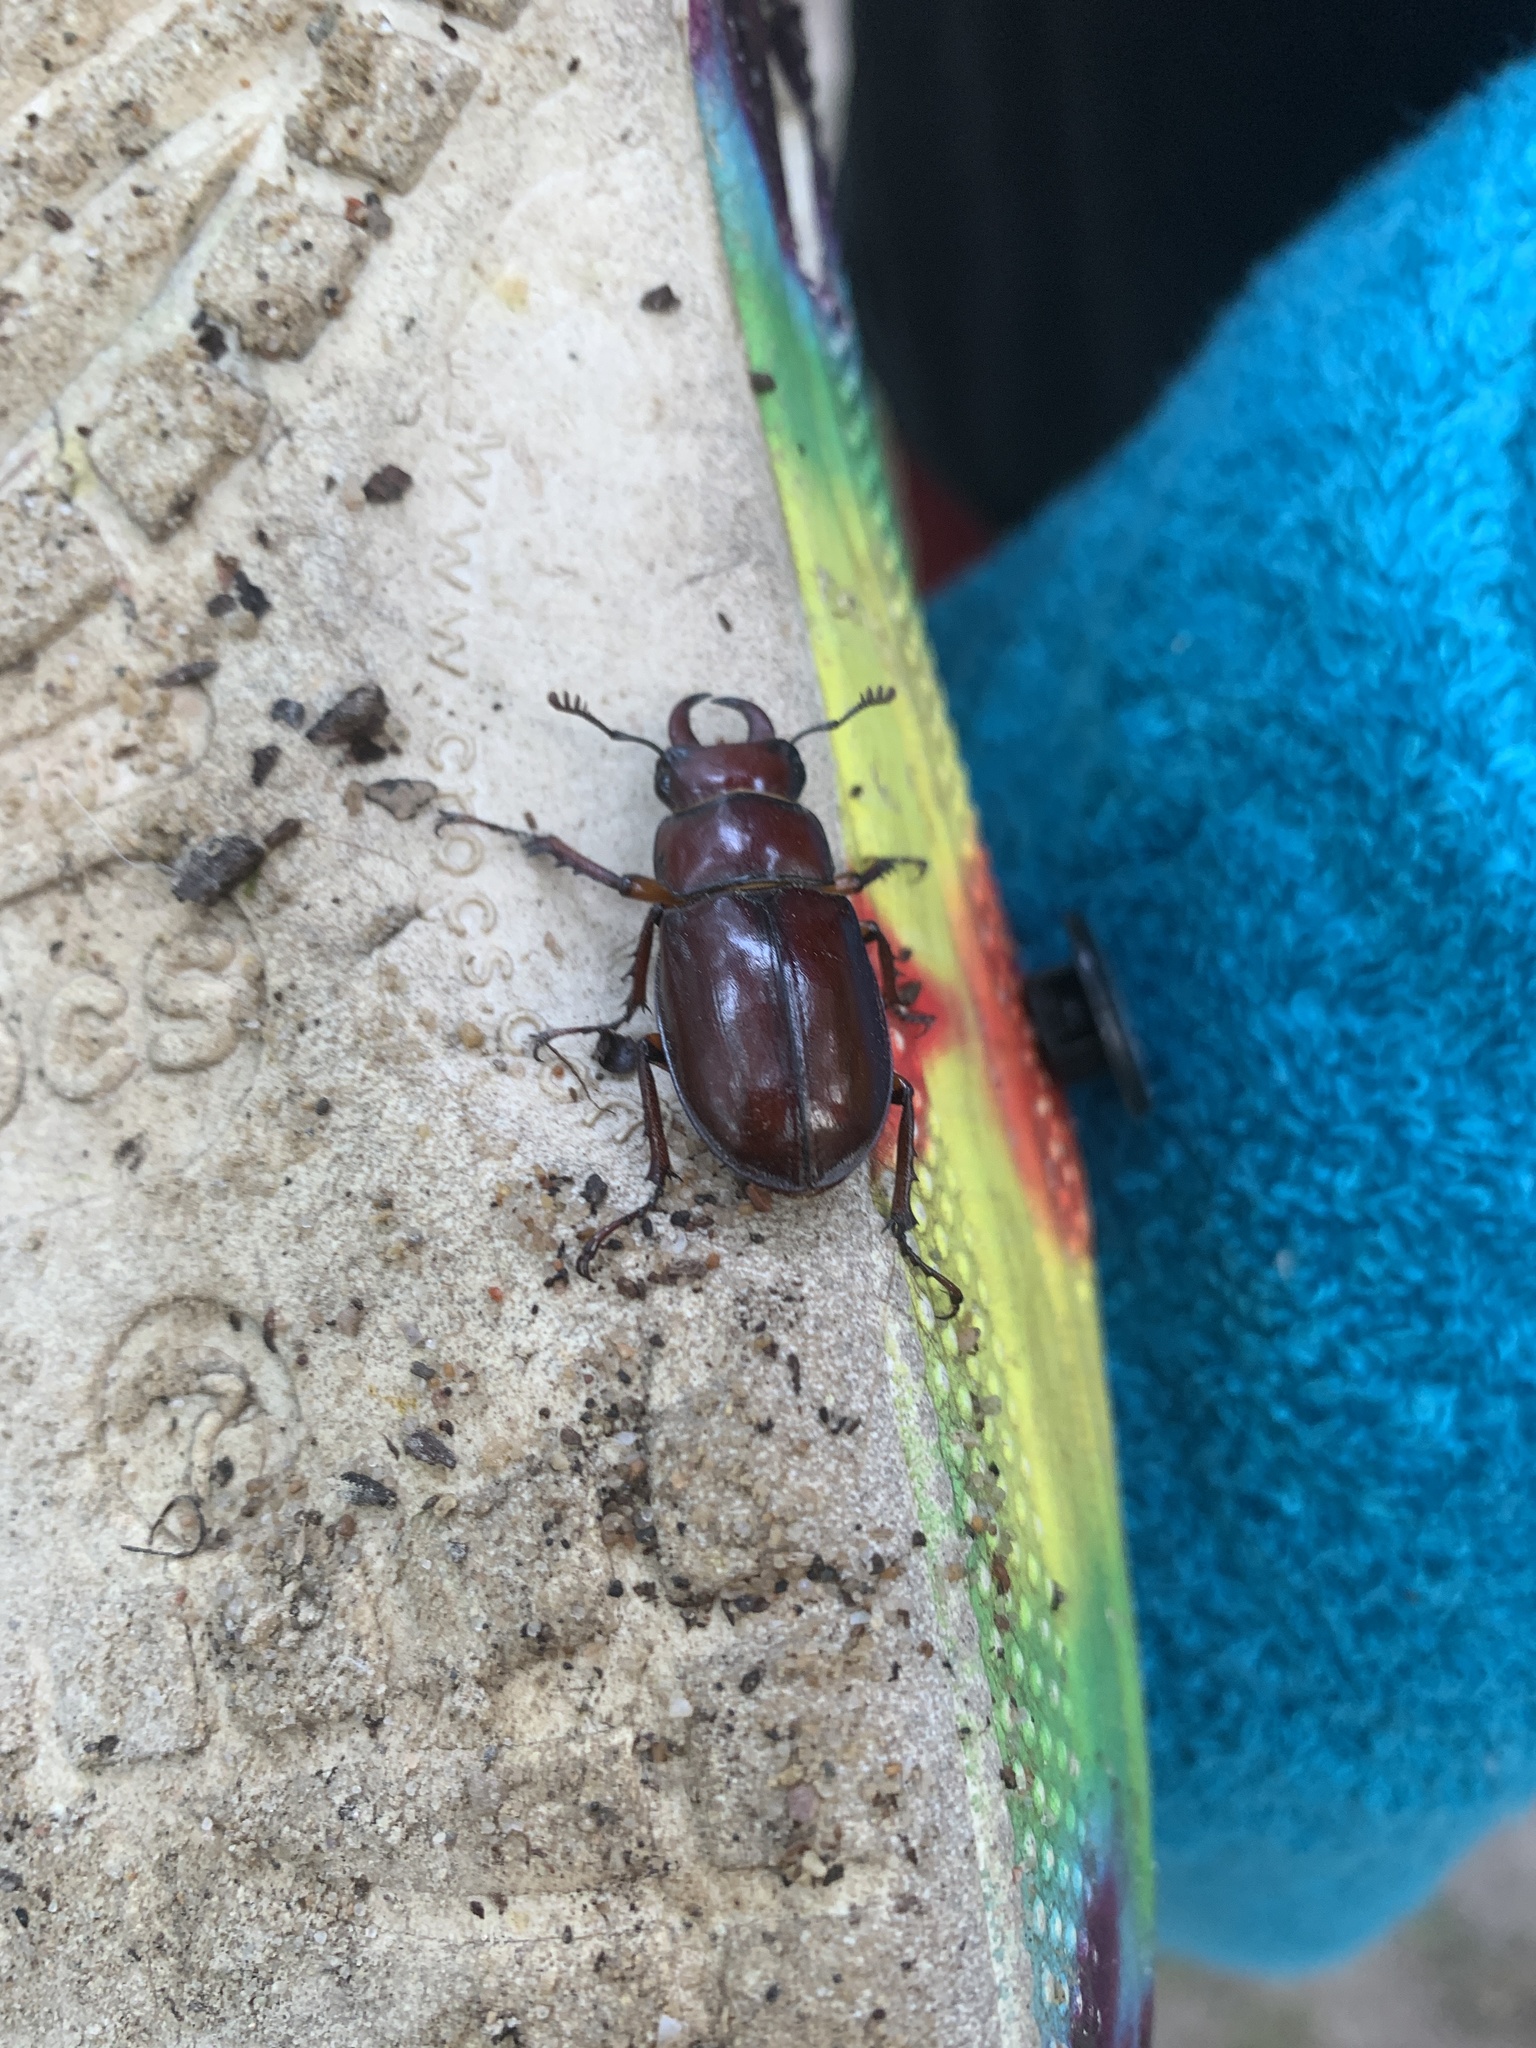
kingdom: Animalia
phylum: Arthropoda
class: Insecta
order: Coleoptera
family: Lucanidae
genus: Lucanus
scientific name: Lucanus capreolus
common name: Stag beetle
